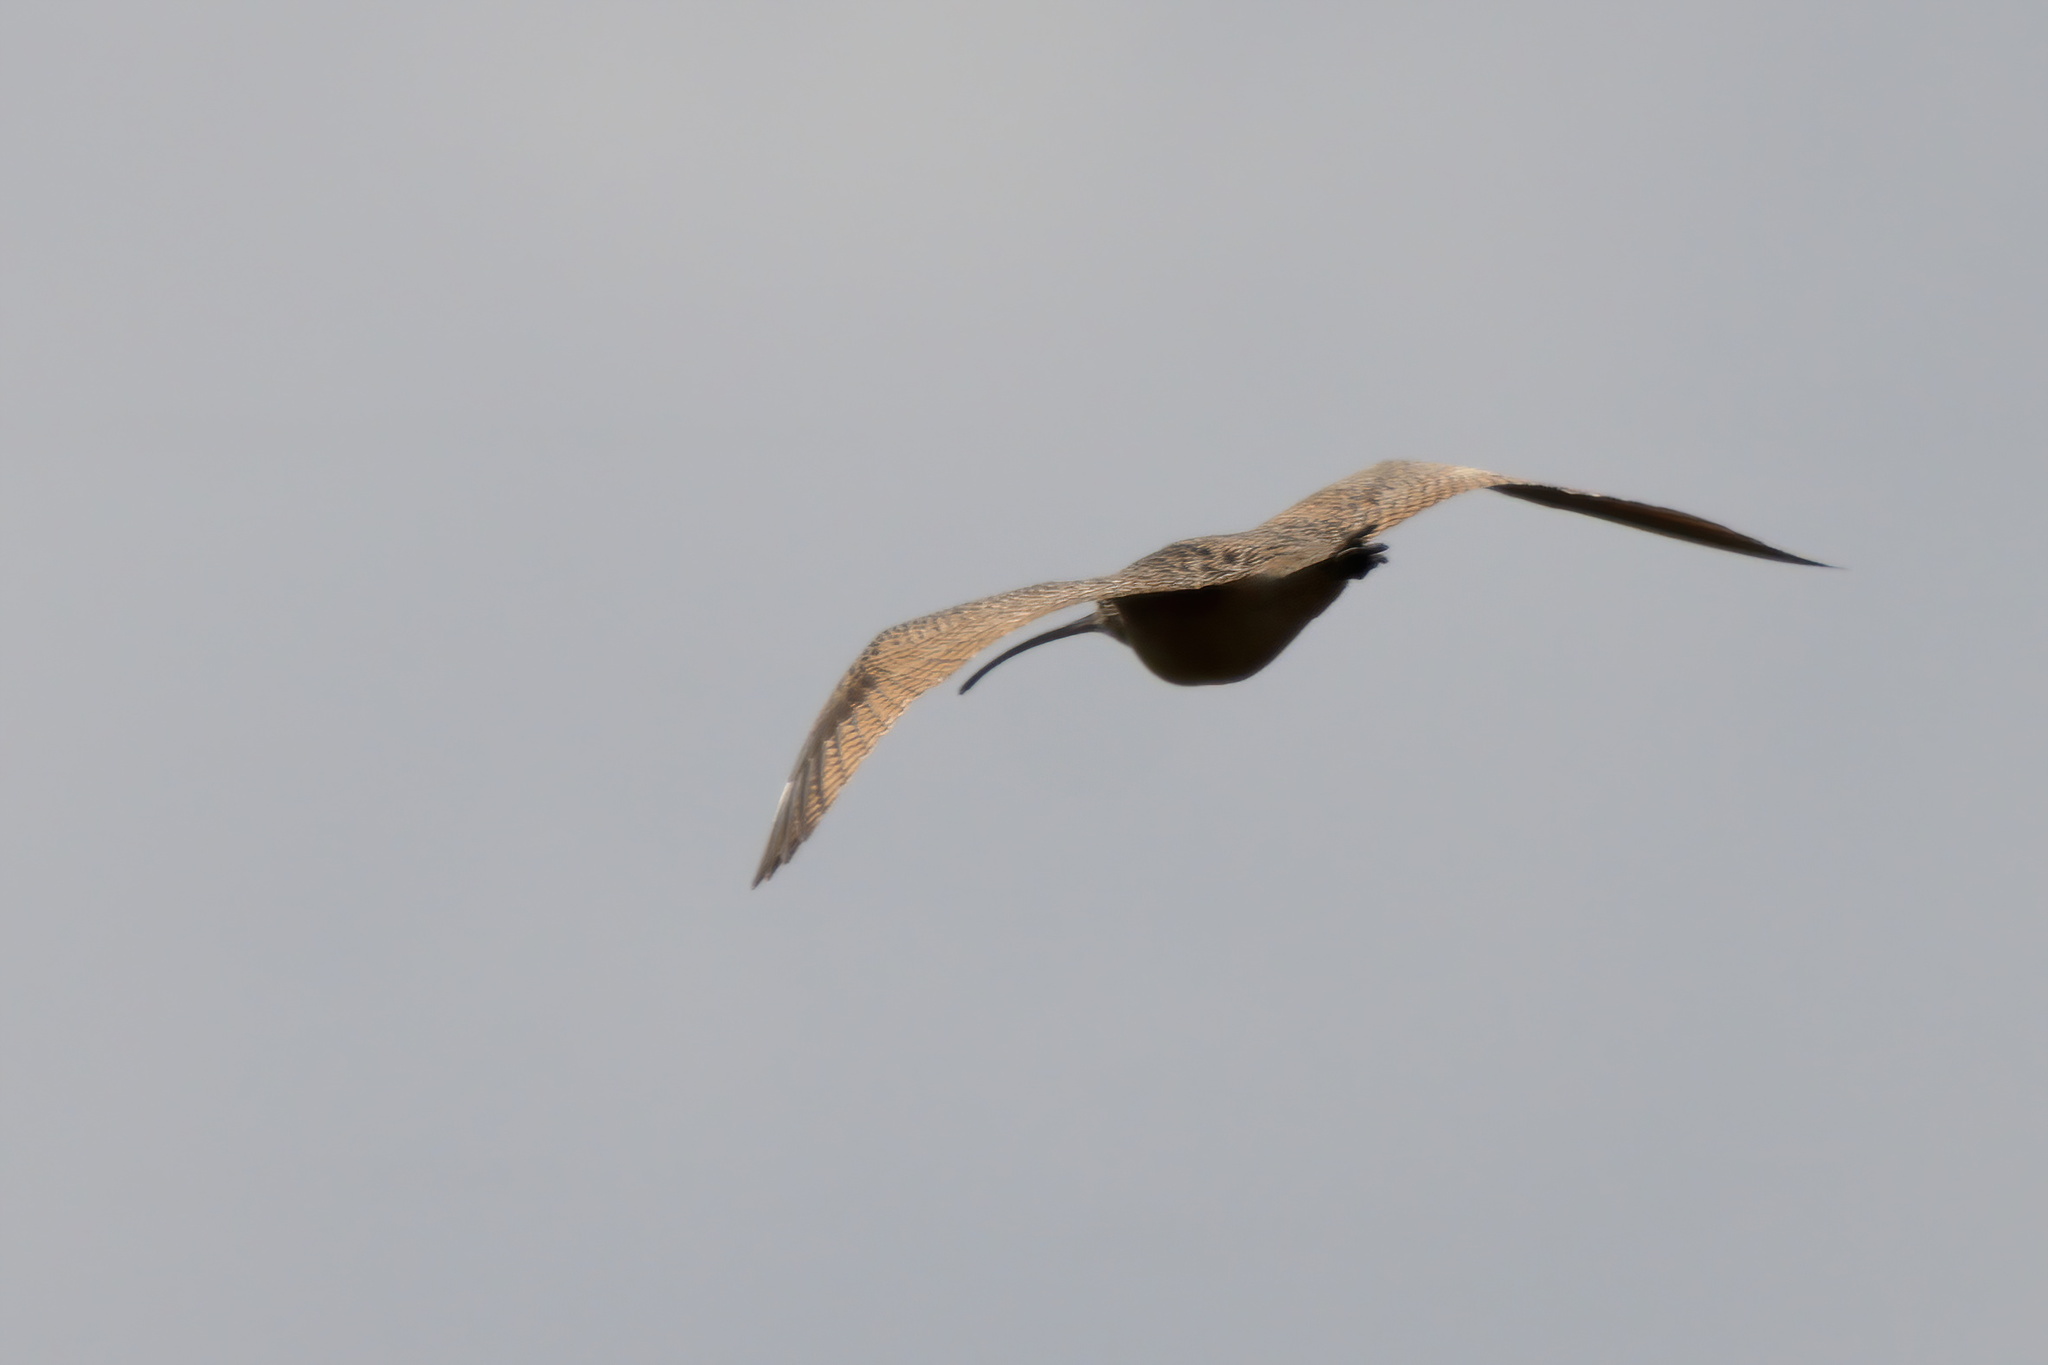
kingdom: Animalia
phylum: Chordata
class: Aves
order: Charadriiformes
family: Scolopacidae
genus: Numenius
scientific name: Numenius americanus
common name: Long-billed curlew
